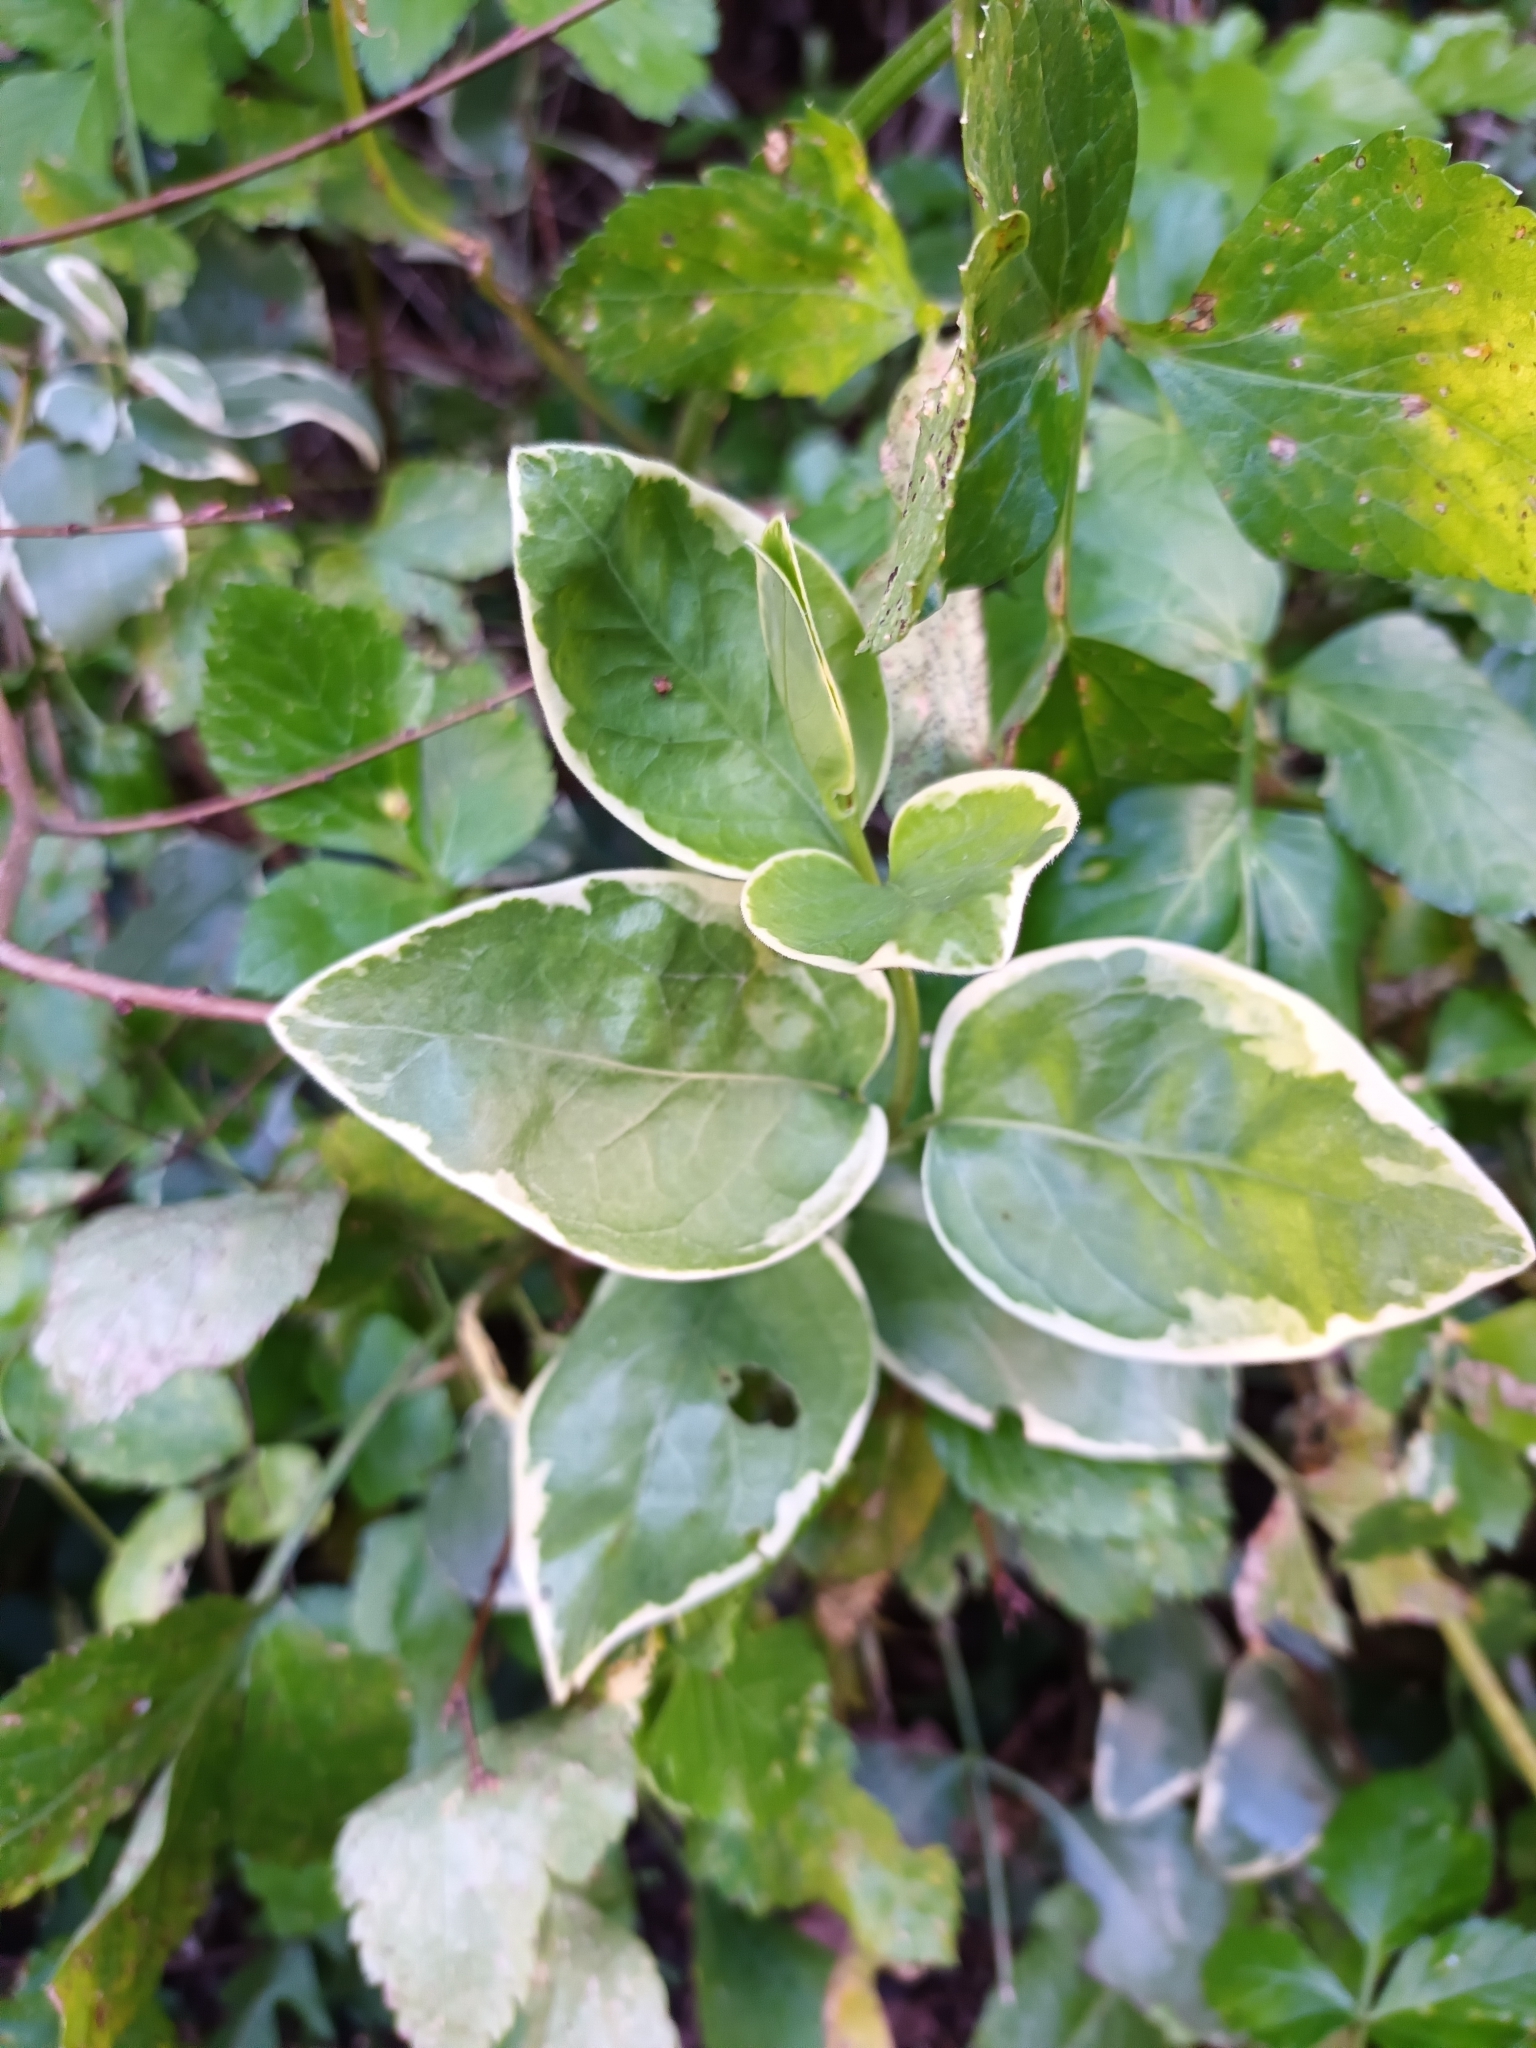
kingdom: Plantae
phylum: Tracheophyta
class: Magnoliopsida
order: Gentianales
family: Apocynaceae
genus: Vinca
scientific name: Vinca major
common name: Greater periwinkle
